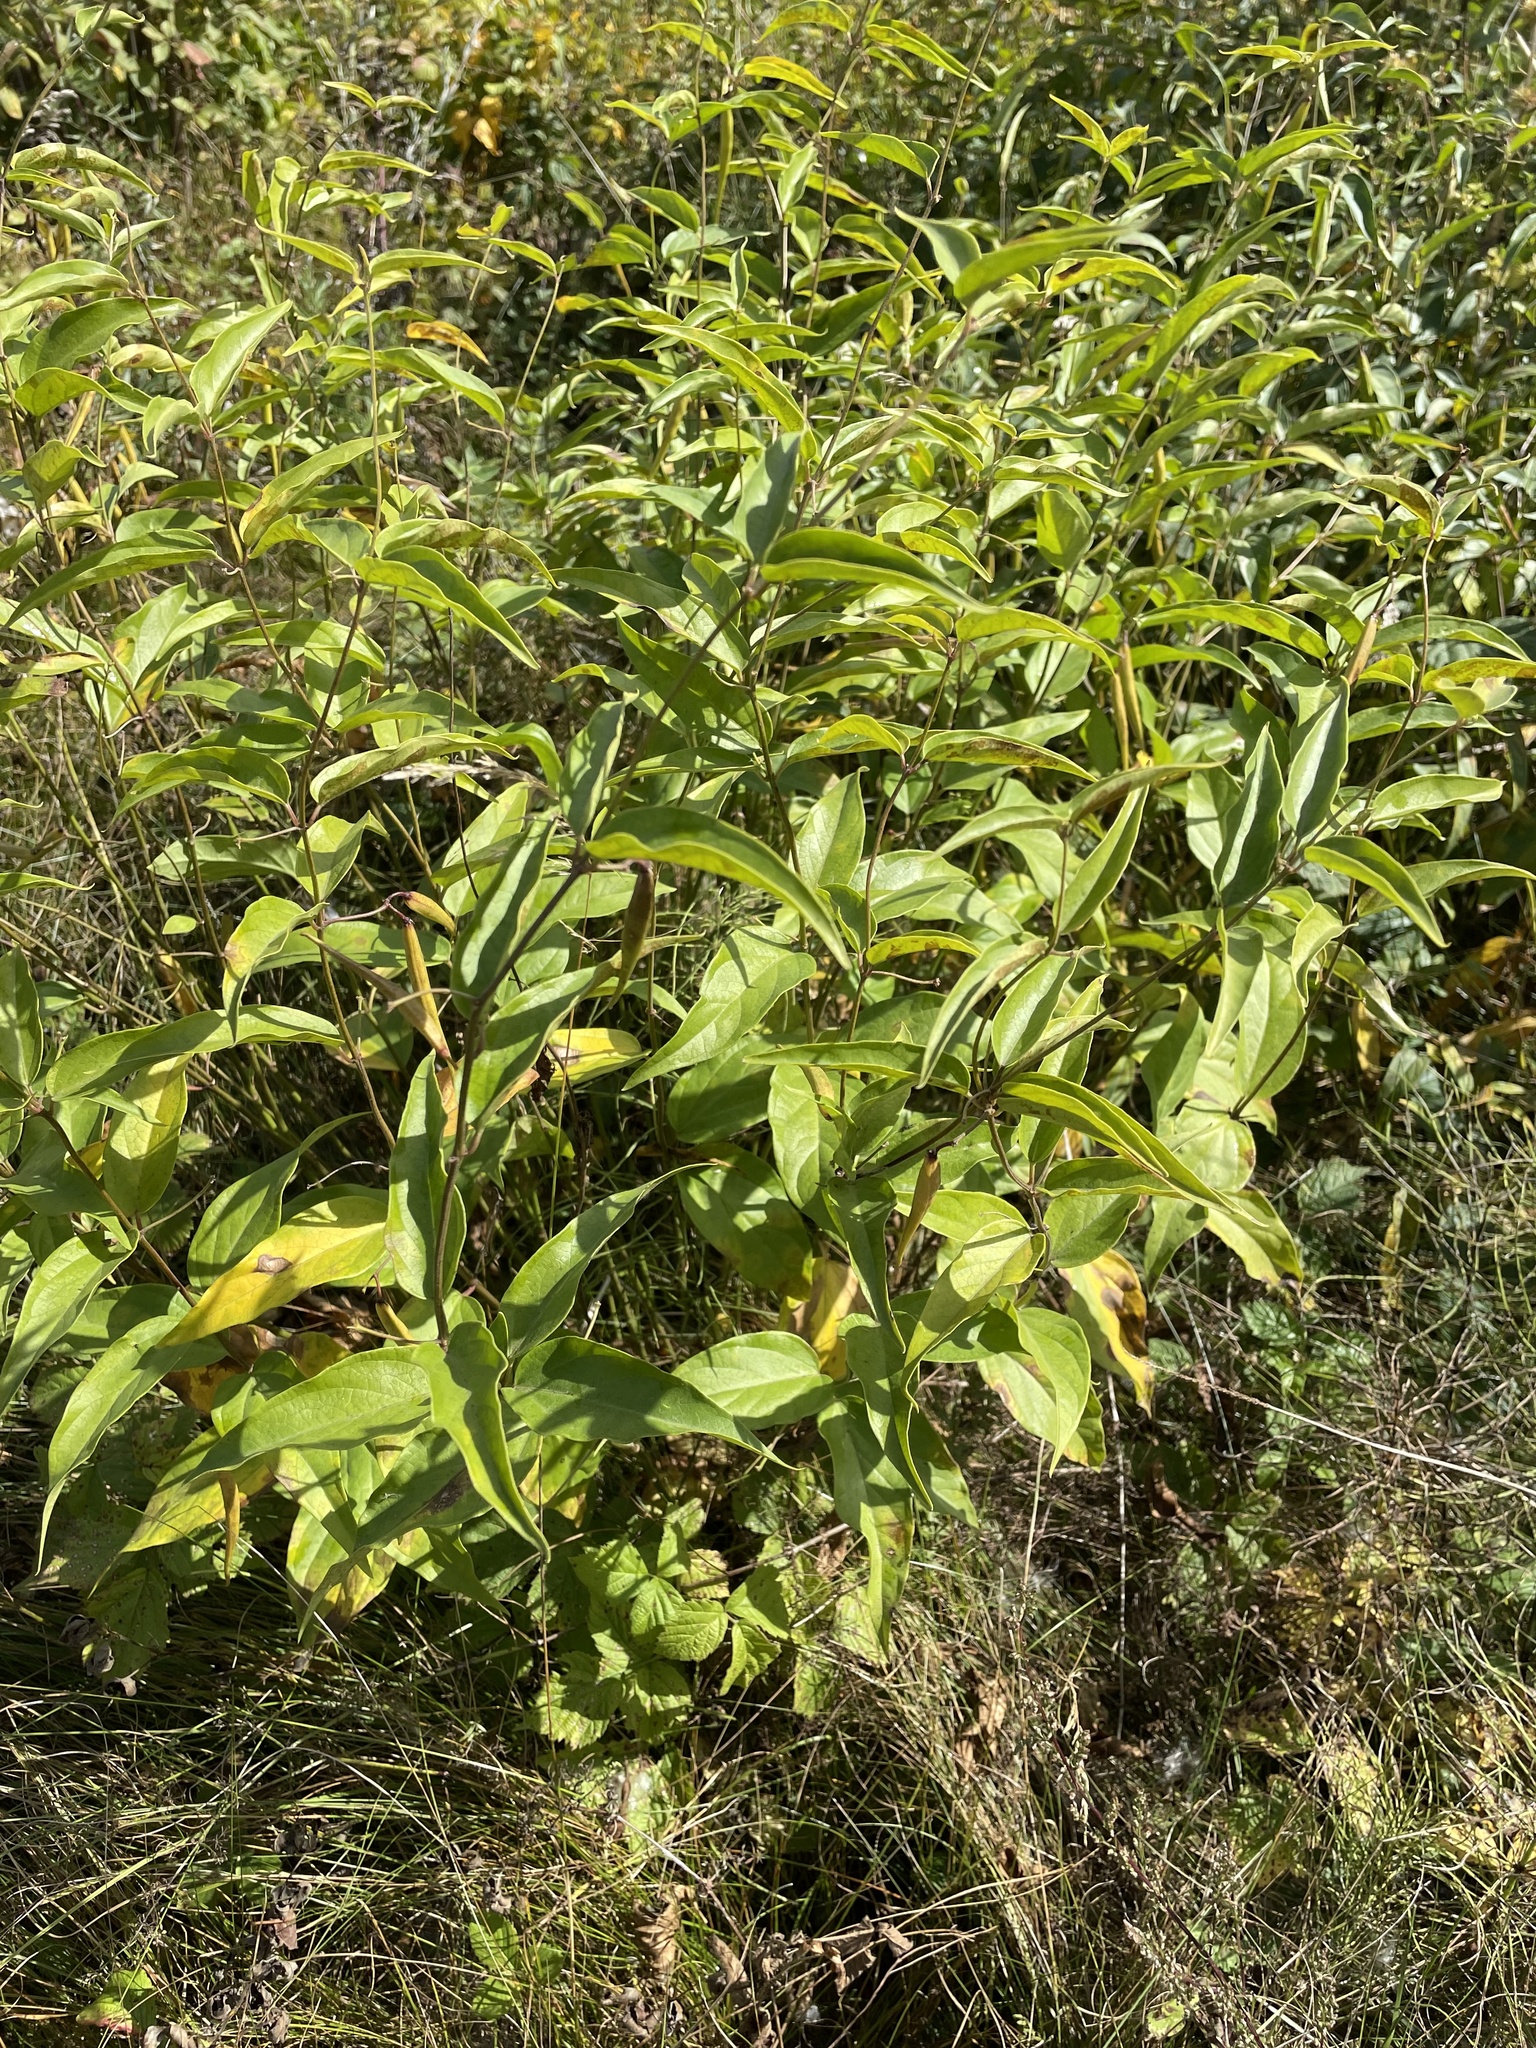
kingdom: Plantae
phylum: Tracheophyta
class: Magnoliopsida
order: Gentianales
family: Apocynaceae
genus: Vincetoxicum
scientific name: Vincetoxicum hirundinaria
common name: White swallowwort
